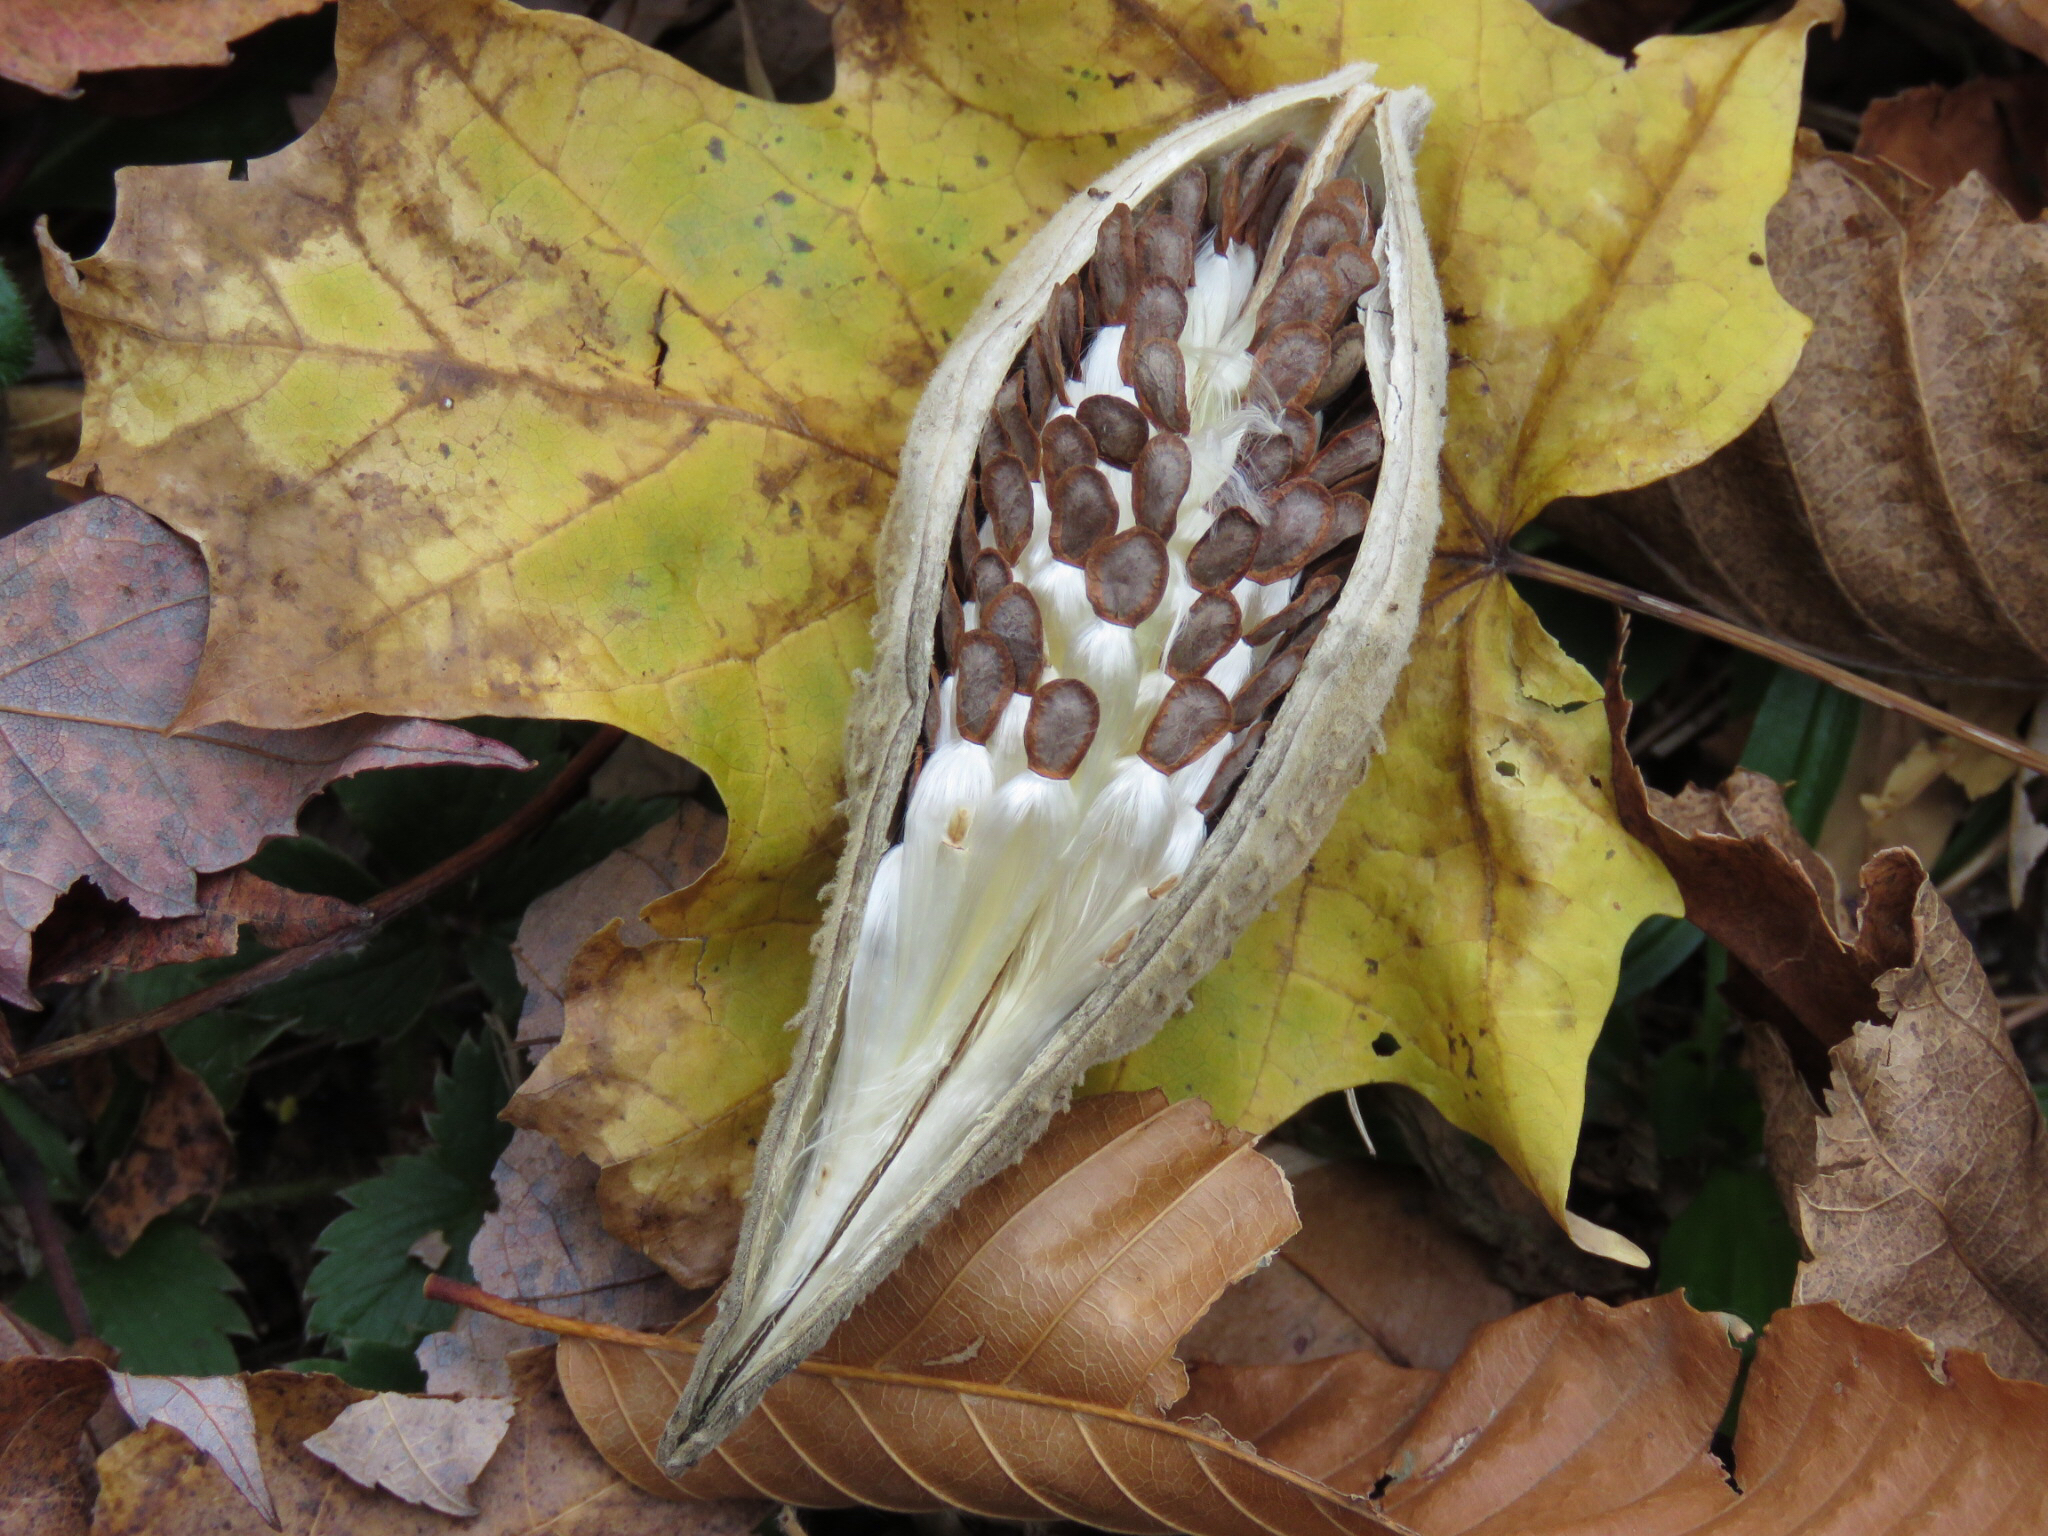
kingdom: Plantae
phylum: Tracheophyta
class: Magnoliopsida
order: Gentianales
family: Apocynaceae
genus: Asclepias
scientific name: Asclepias syriaca
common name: Common milkweed
